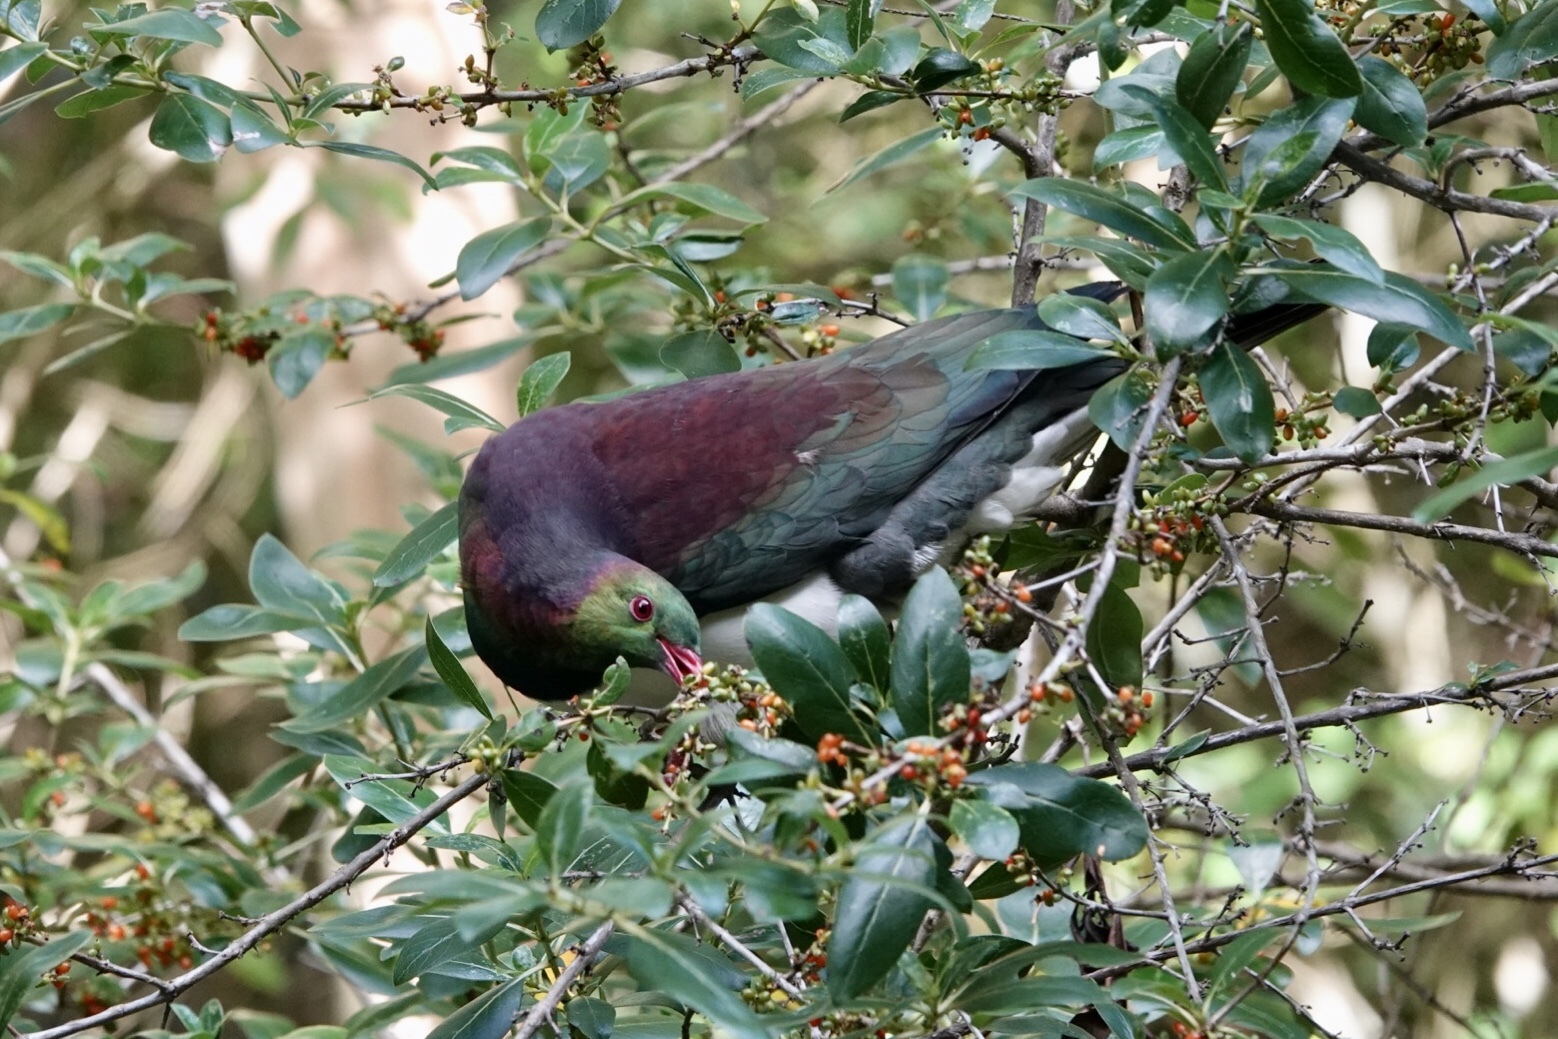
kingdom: Animalia
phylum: Chordata
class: Aves
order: Columbiformes
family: Columbidae
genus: Hemiphaga
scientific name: Hemiphaga novaeseelandiae
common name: New zealand pigeon
